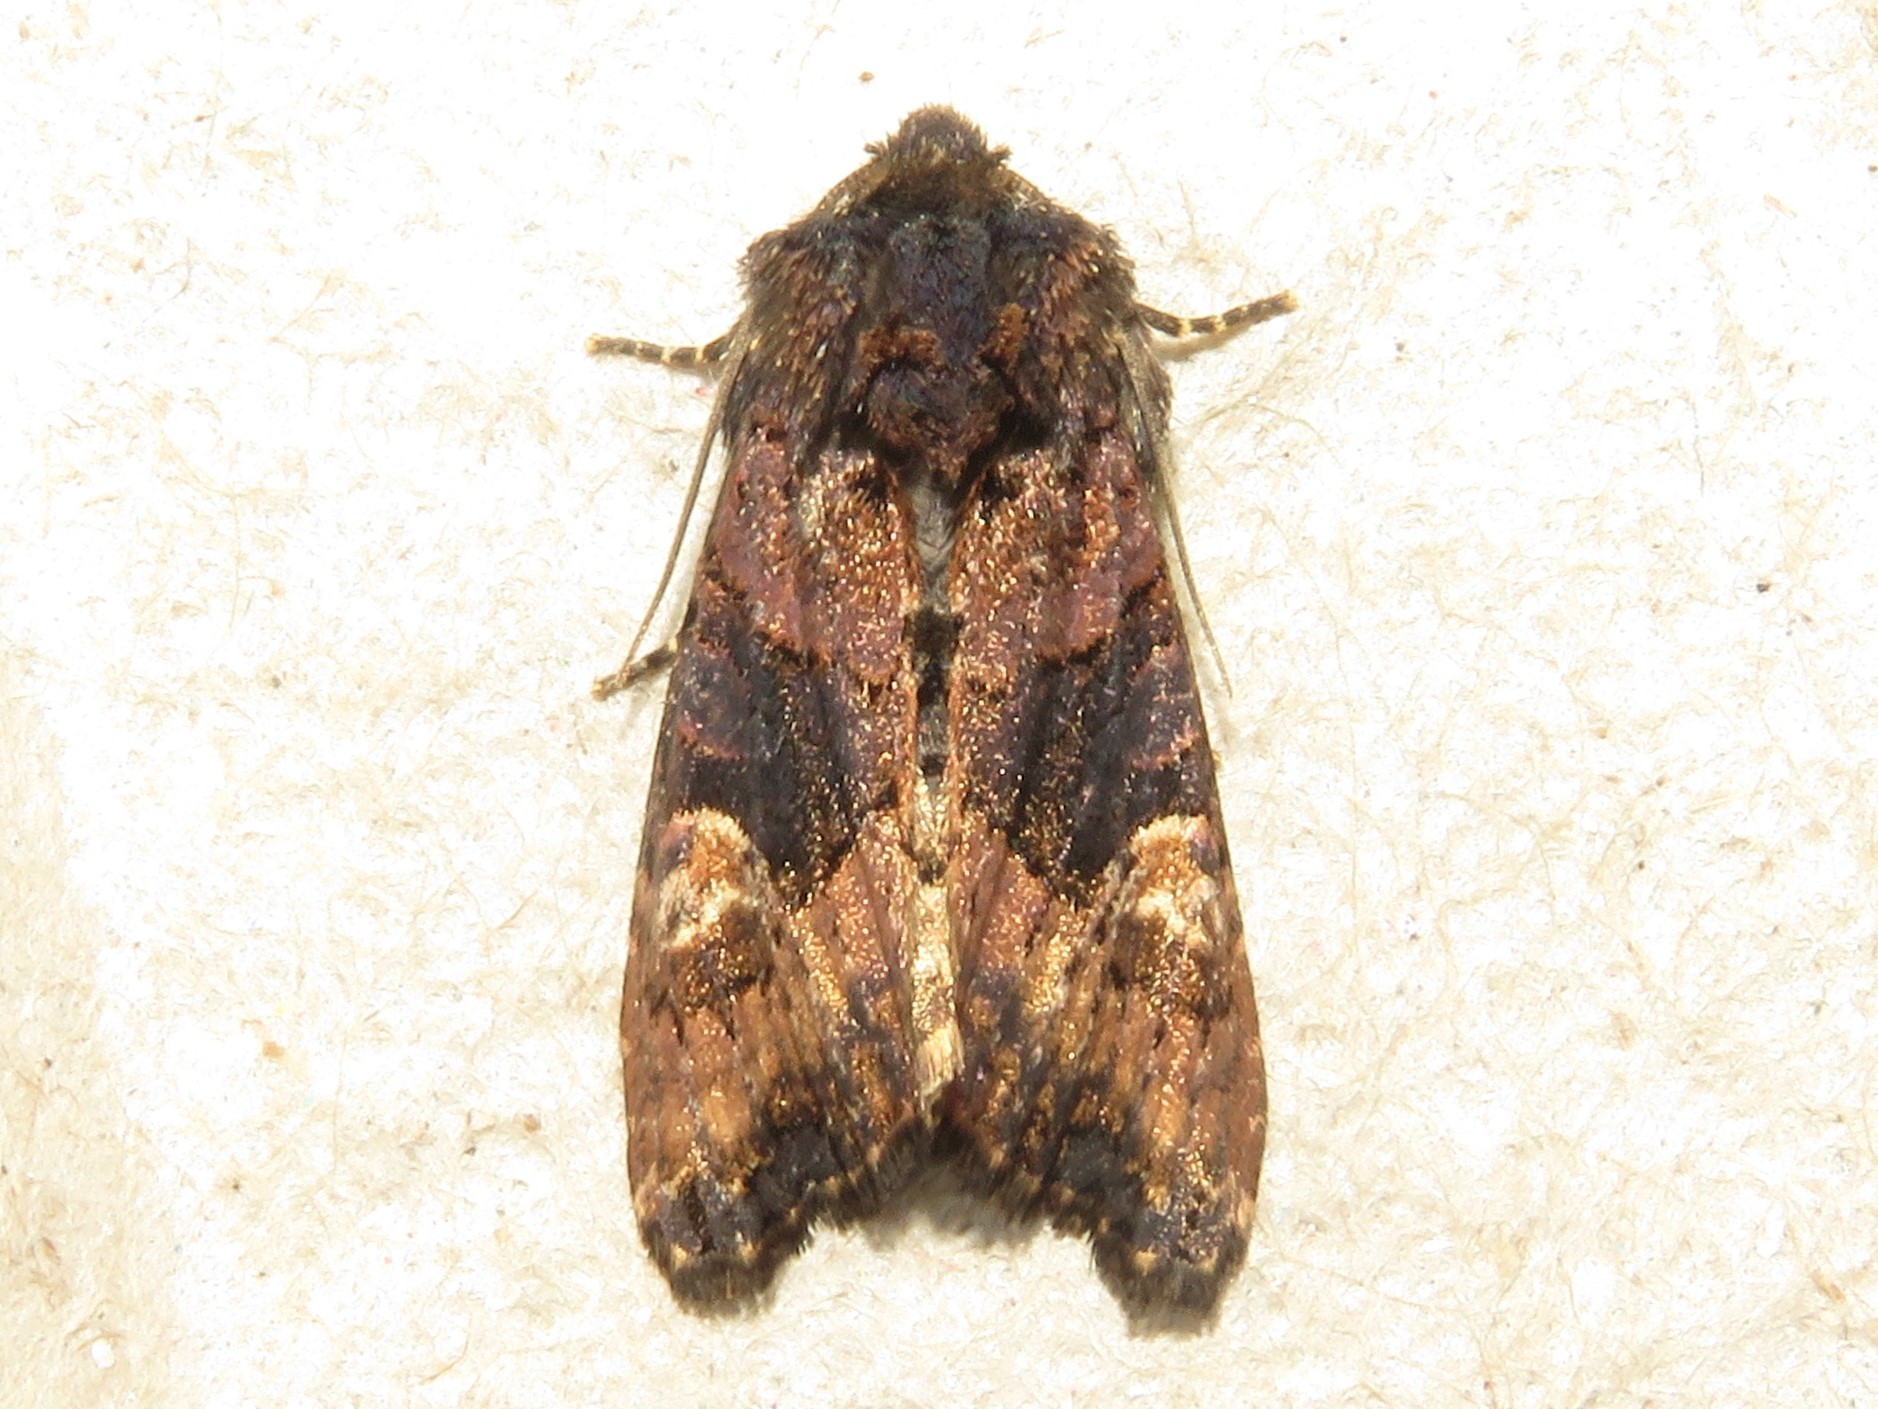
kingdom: Animalia
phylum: Arthropoda
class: Insecta
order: Lepidoptera
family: Noctuidae
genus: Euplexia
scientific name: Euplexia benesimilis
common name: American angle shades
